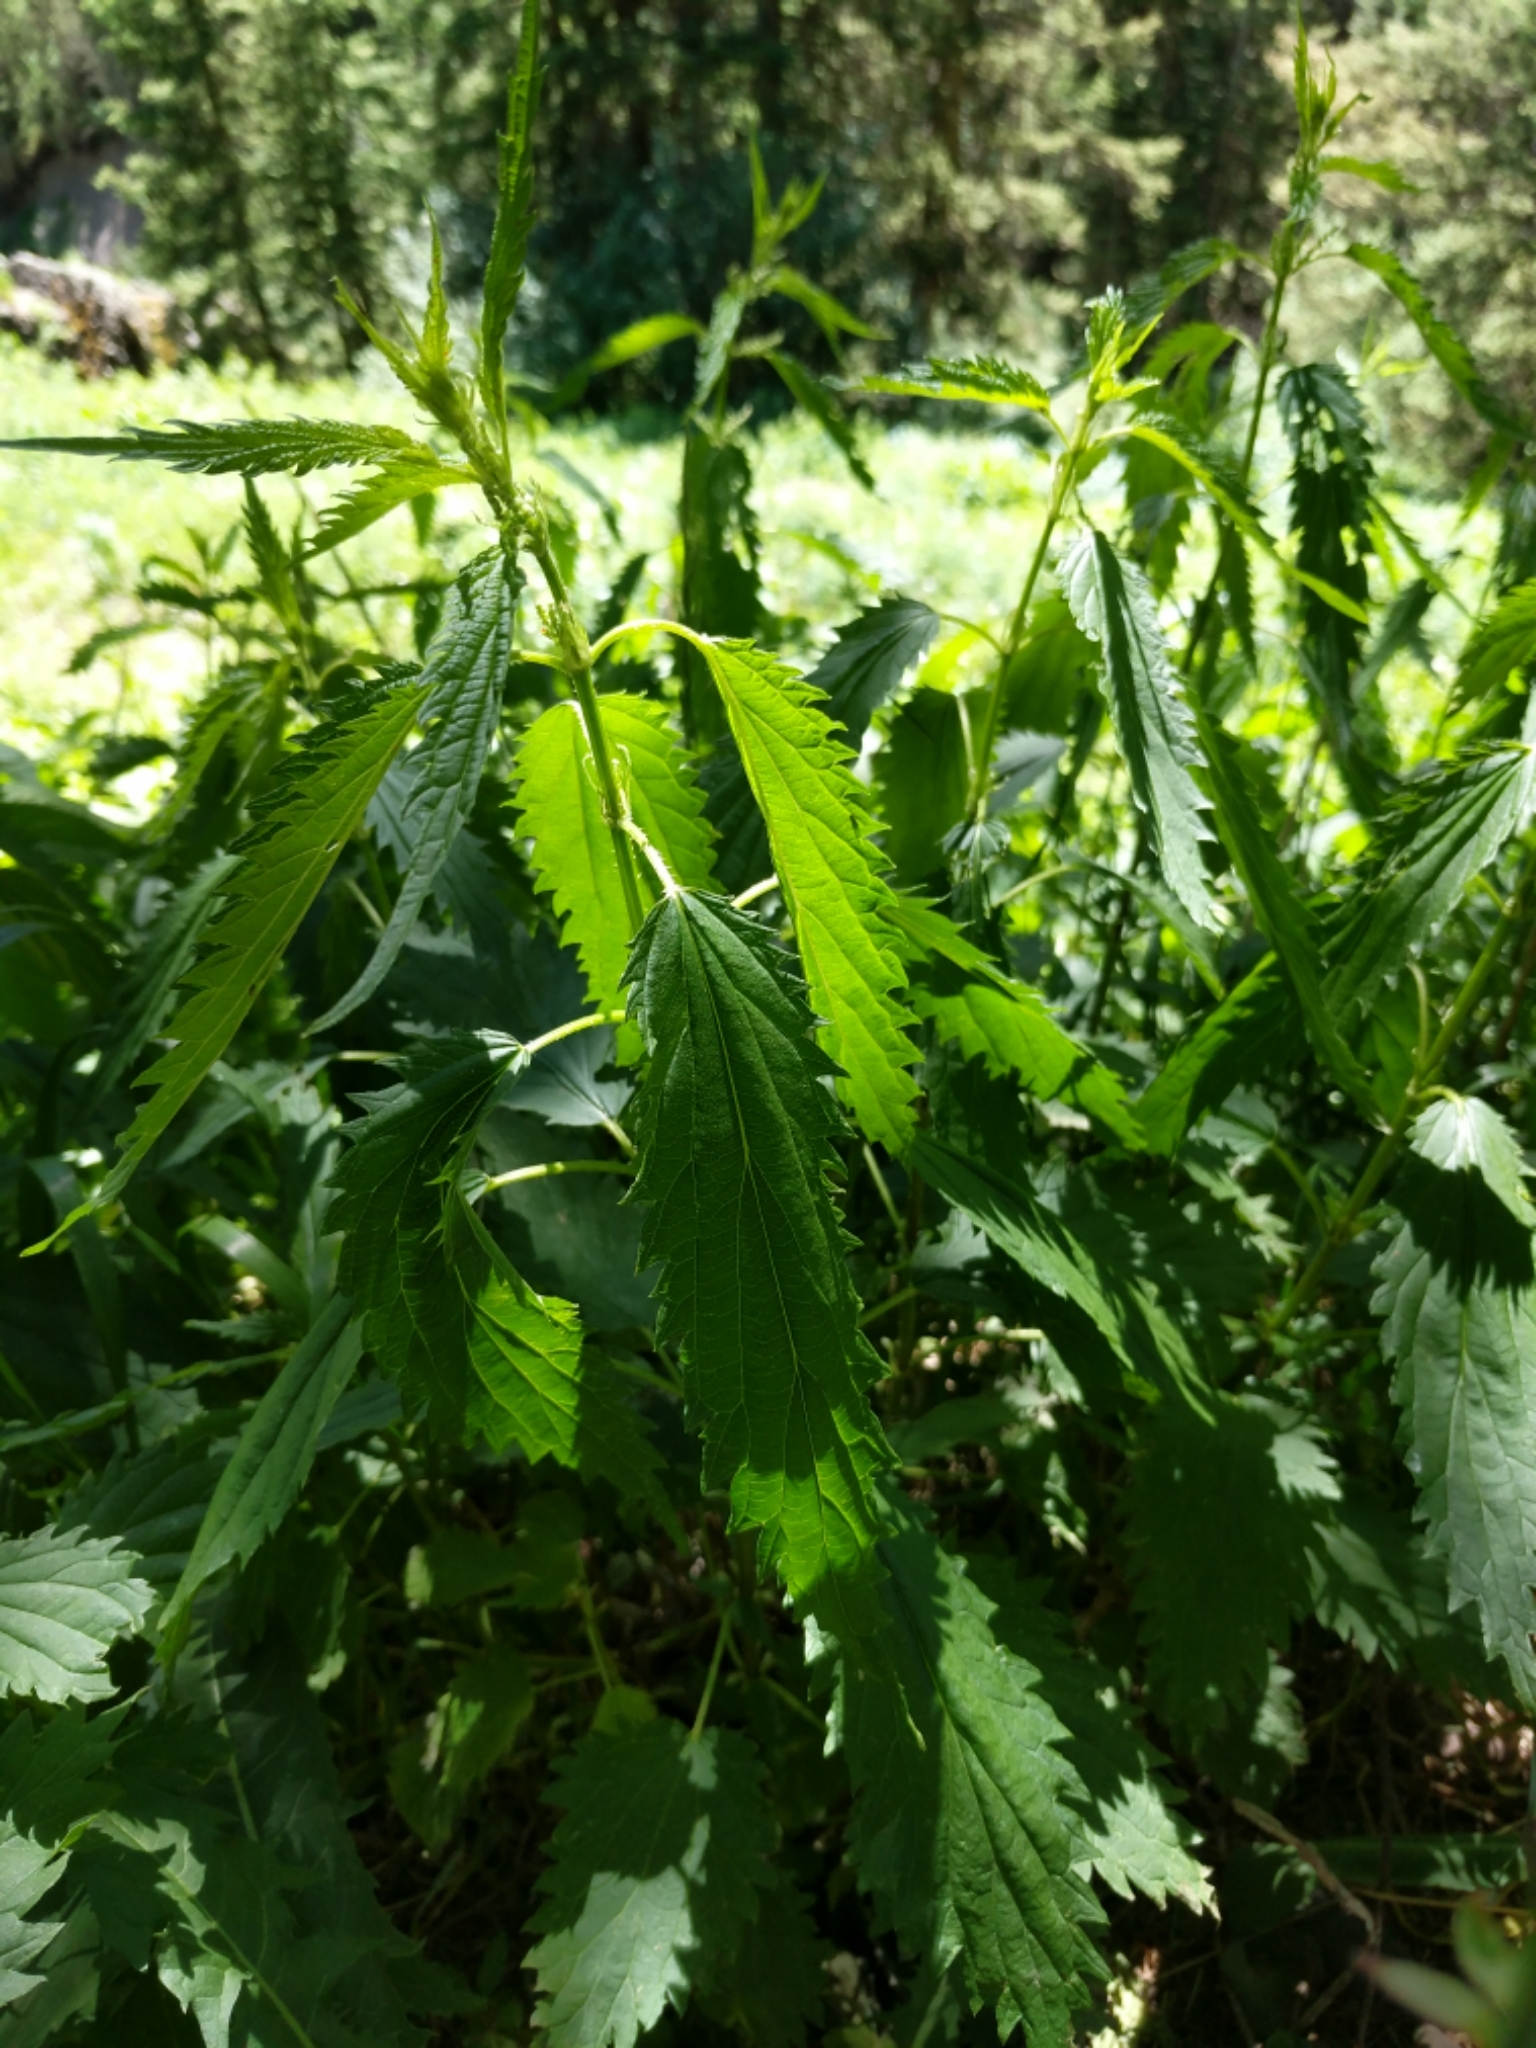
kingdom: Plantae
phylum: Tracheophyta
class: Magnoliopsida
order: Rosales
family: Urticaceae
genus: Urtica
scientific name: Urtica dioica
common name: Common nettle
